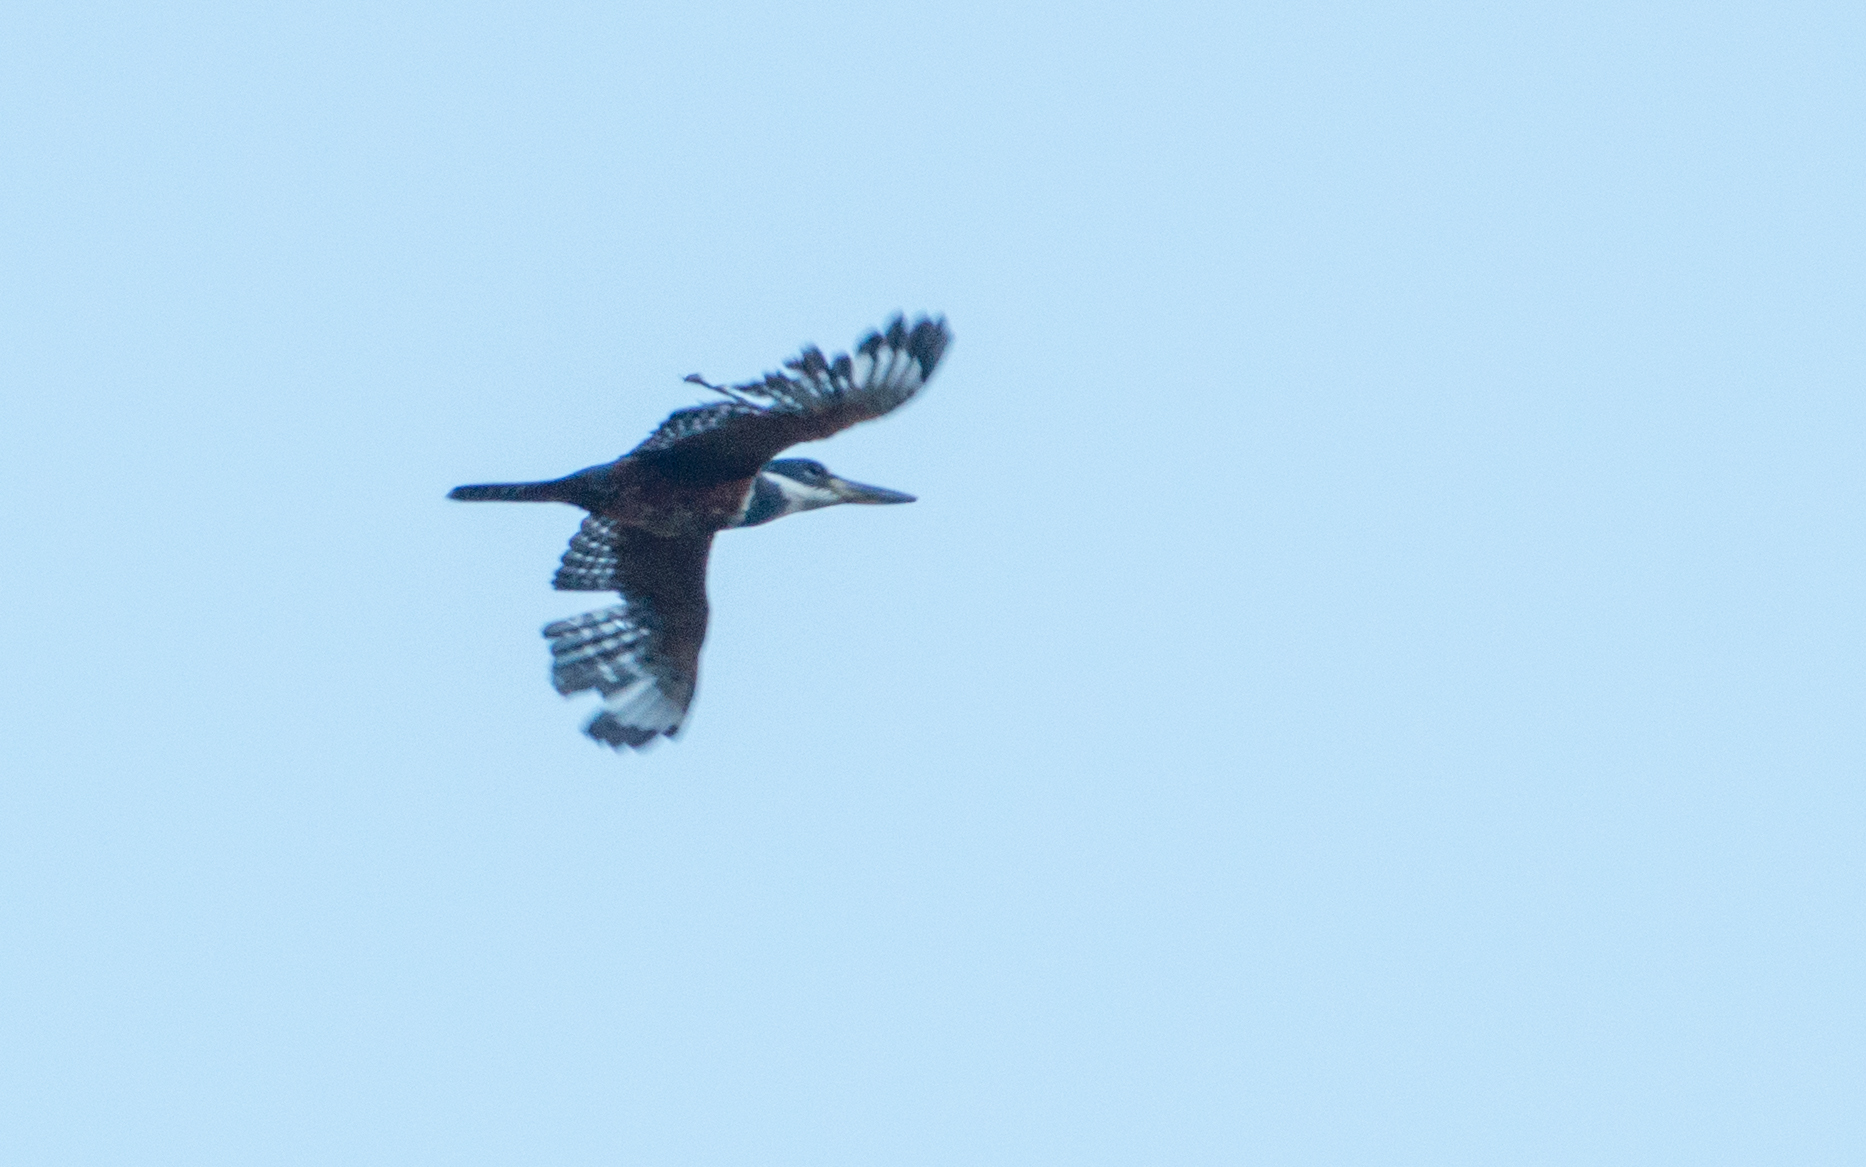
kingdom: Animalia
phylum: Chordata
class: Aves
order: Coraciiformes
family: Alcedinidae
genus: Megaceryle
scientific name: Megaceryle torquata
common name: Ringed kingfisher
